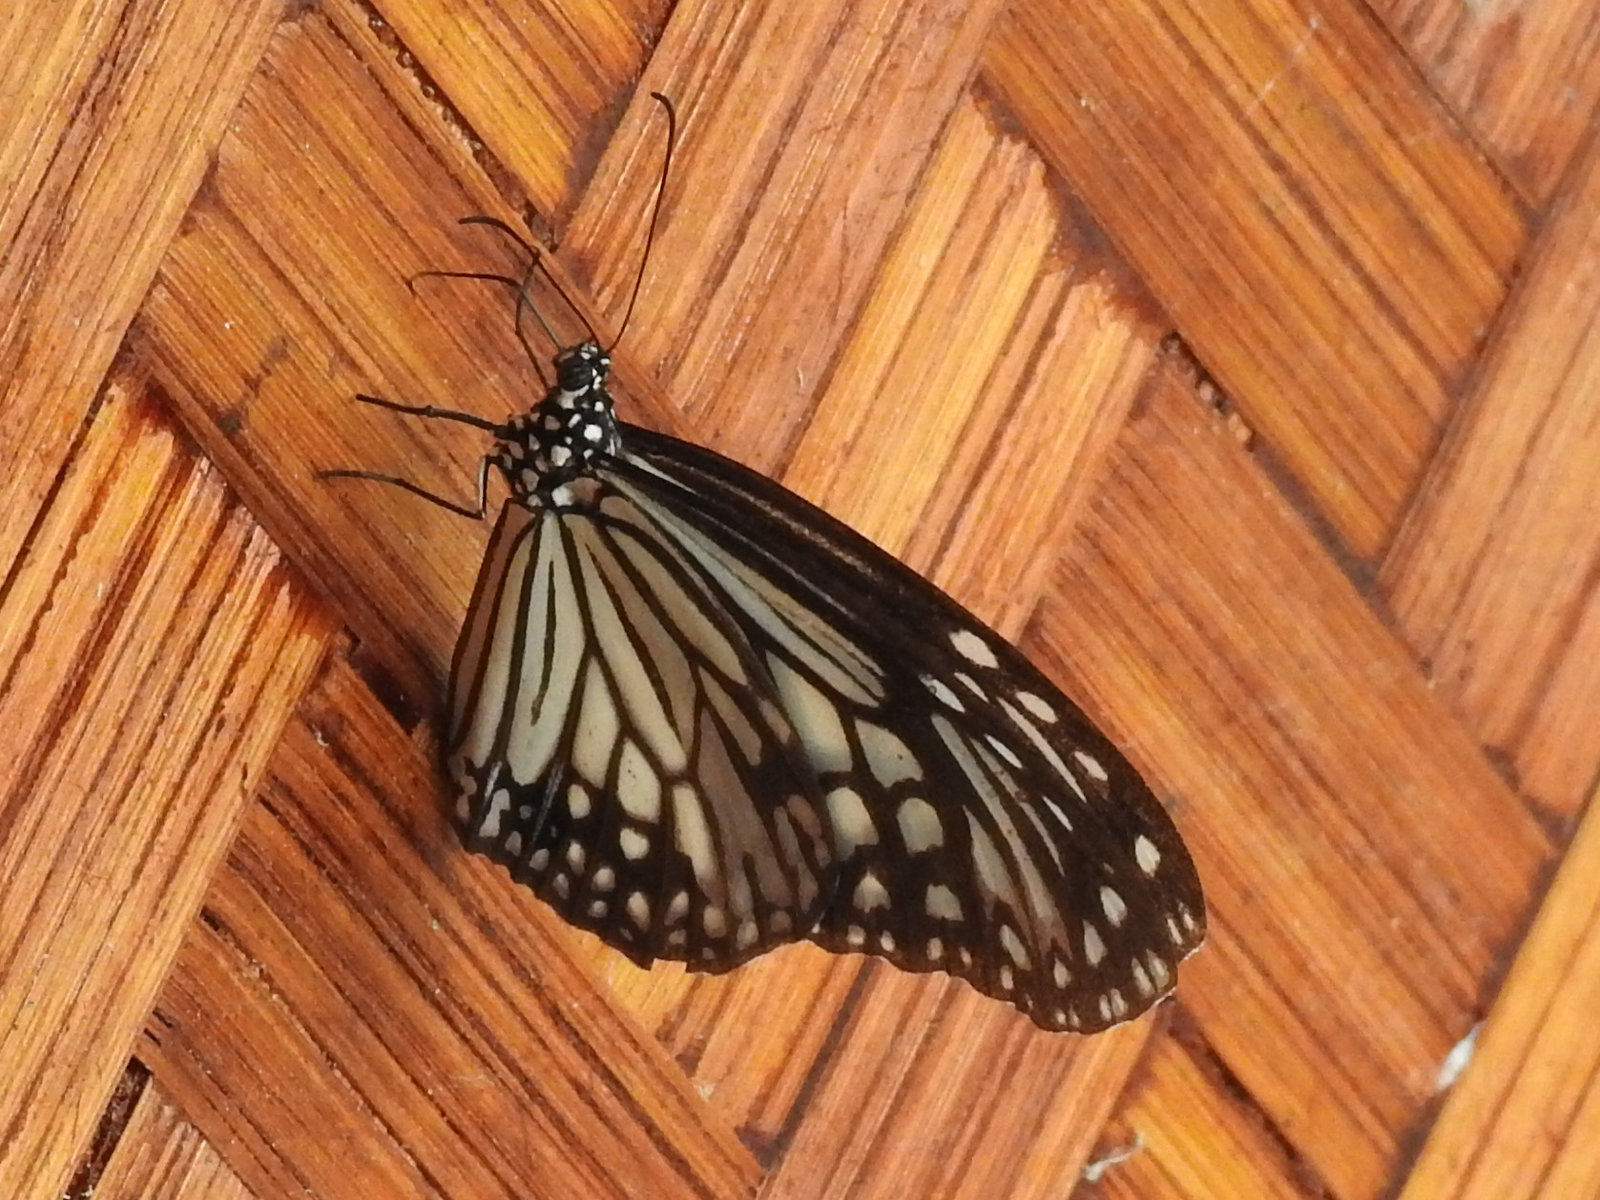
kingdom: Animalia
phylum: Arthropoda
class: Insecta
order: Lepidoptera
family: Nymphalidae
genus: Parantica
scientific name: Parantica aglea
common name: Glassy tiger
